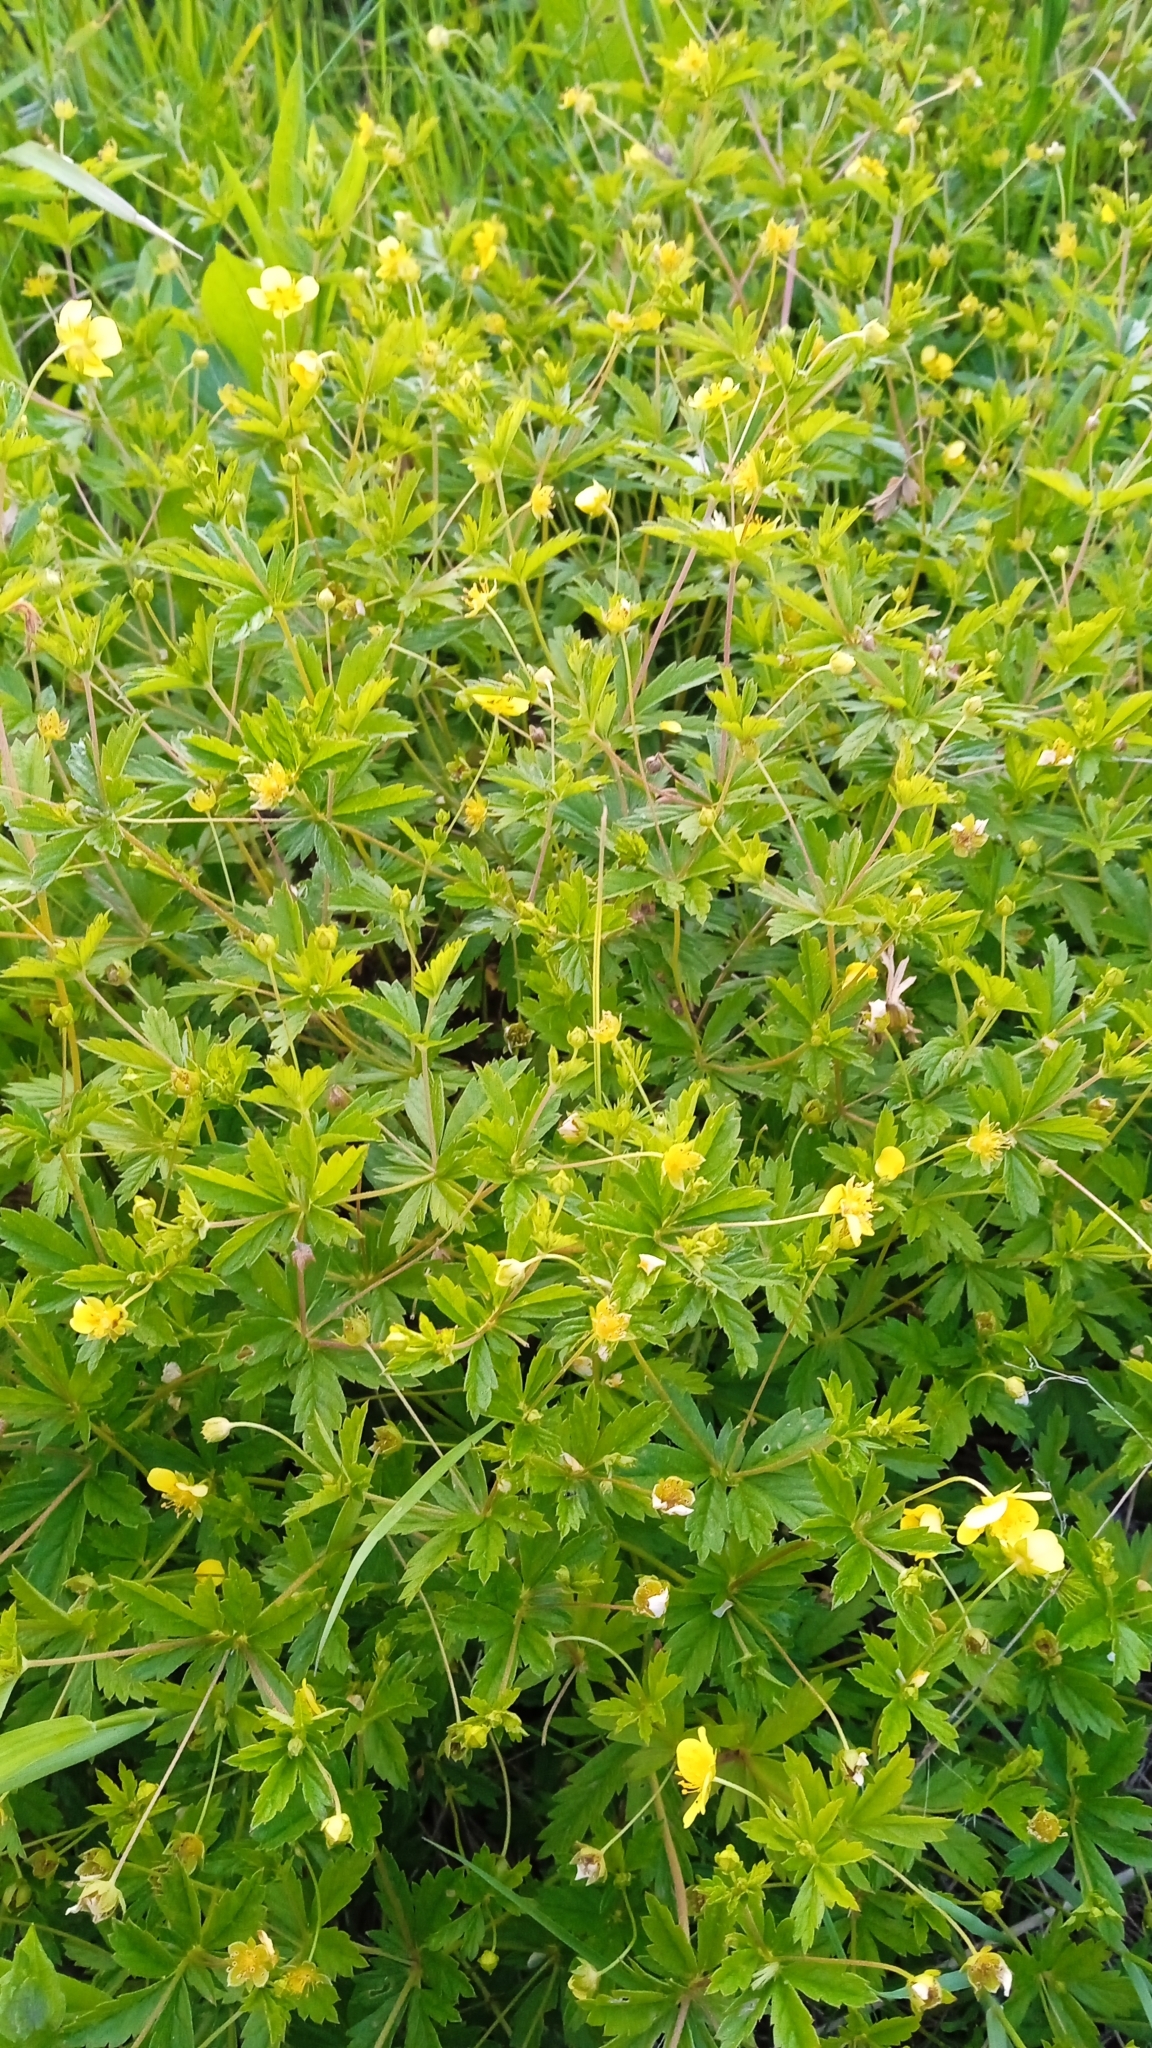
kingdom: Plantae
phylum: Tracheophyta
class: Magnoliopsida
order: Rosales
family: Rosaceae
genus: Potentilla
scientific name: Potentilla erecta
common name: Tormentil
